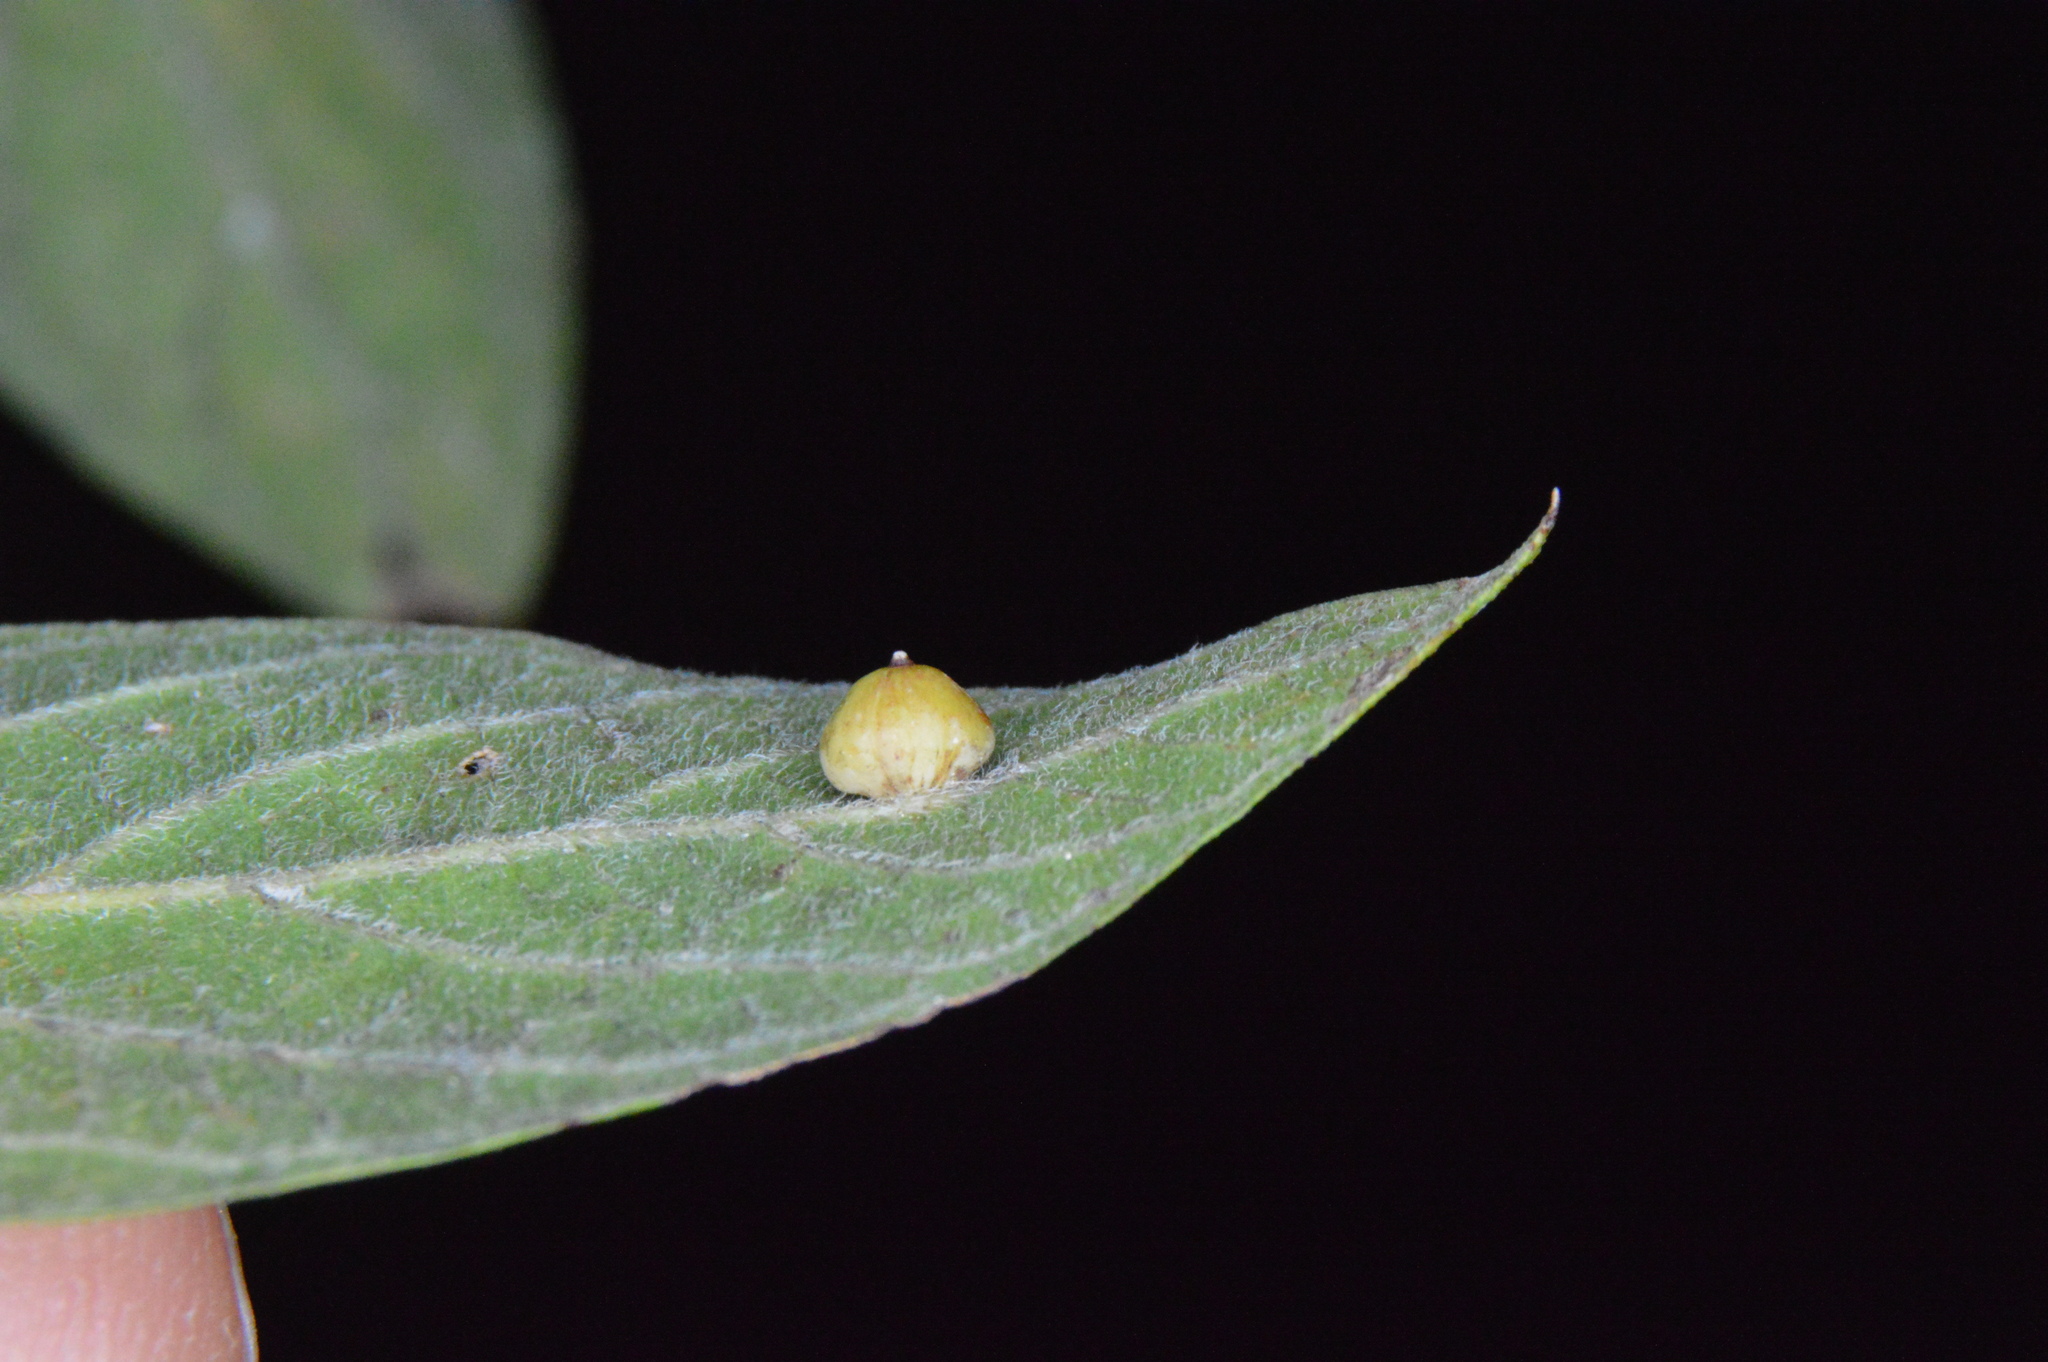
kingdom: Animalia
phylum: Arthropoda
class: Insecta
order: Diptera
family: Cecidomyiidae
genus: Celticecis
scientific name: Celticecis globosa
